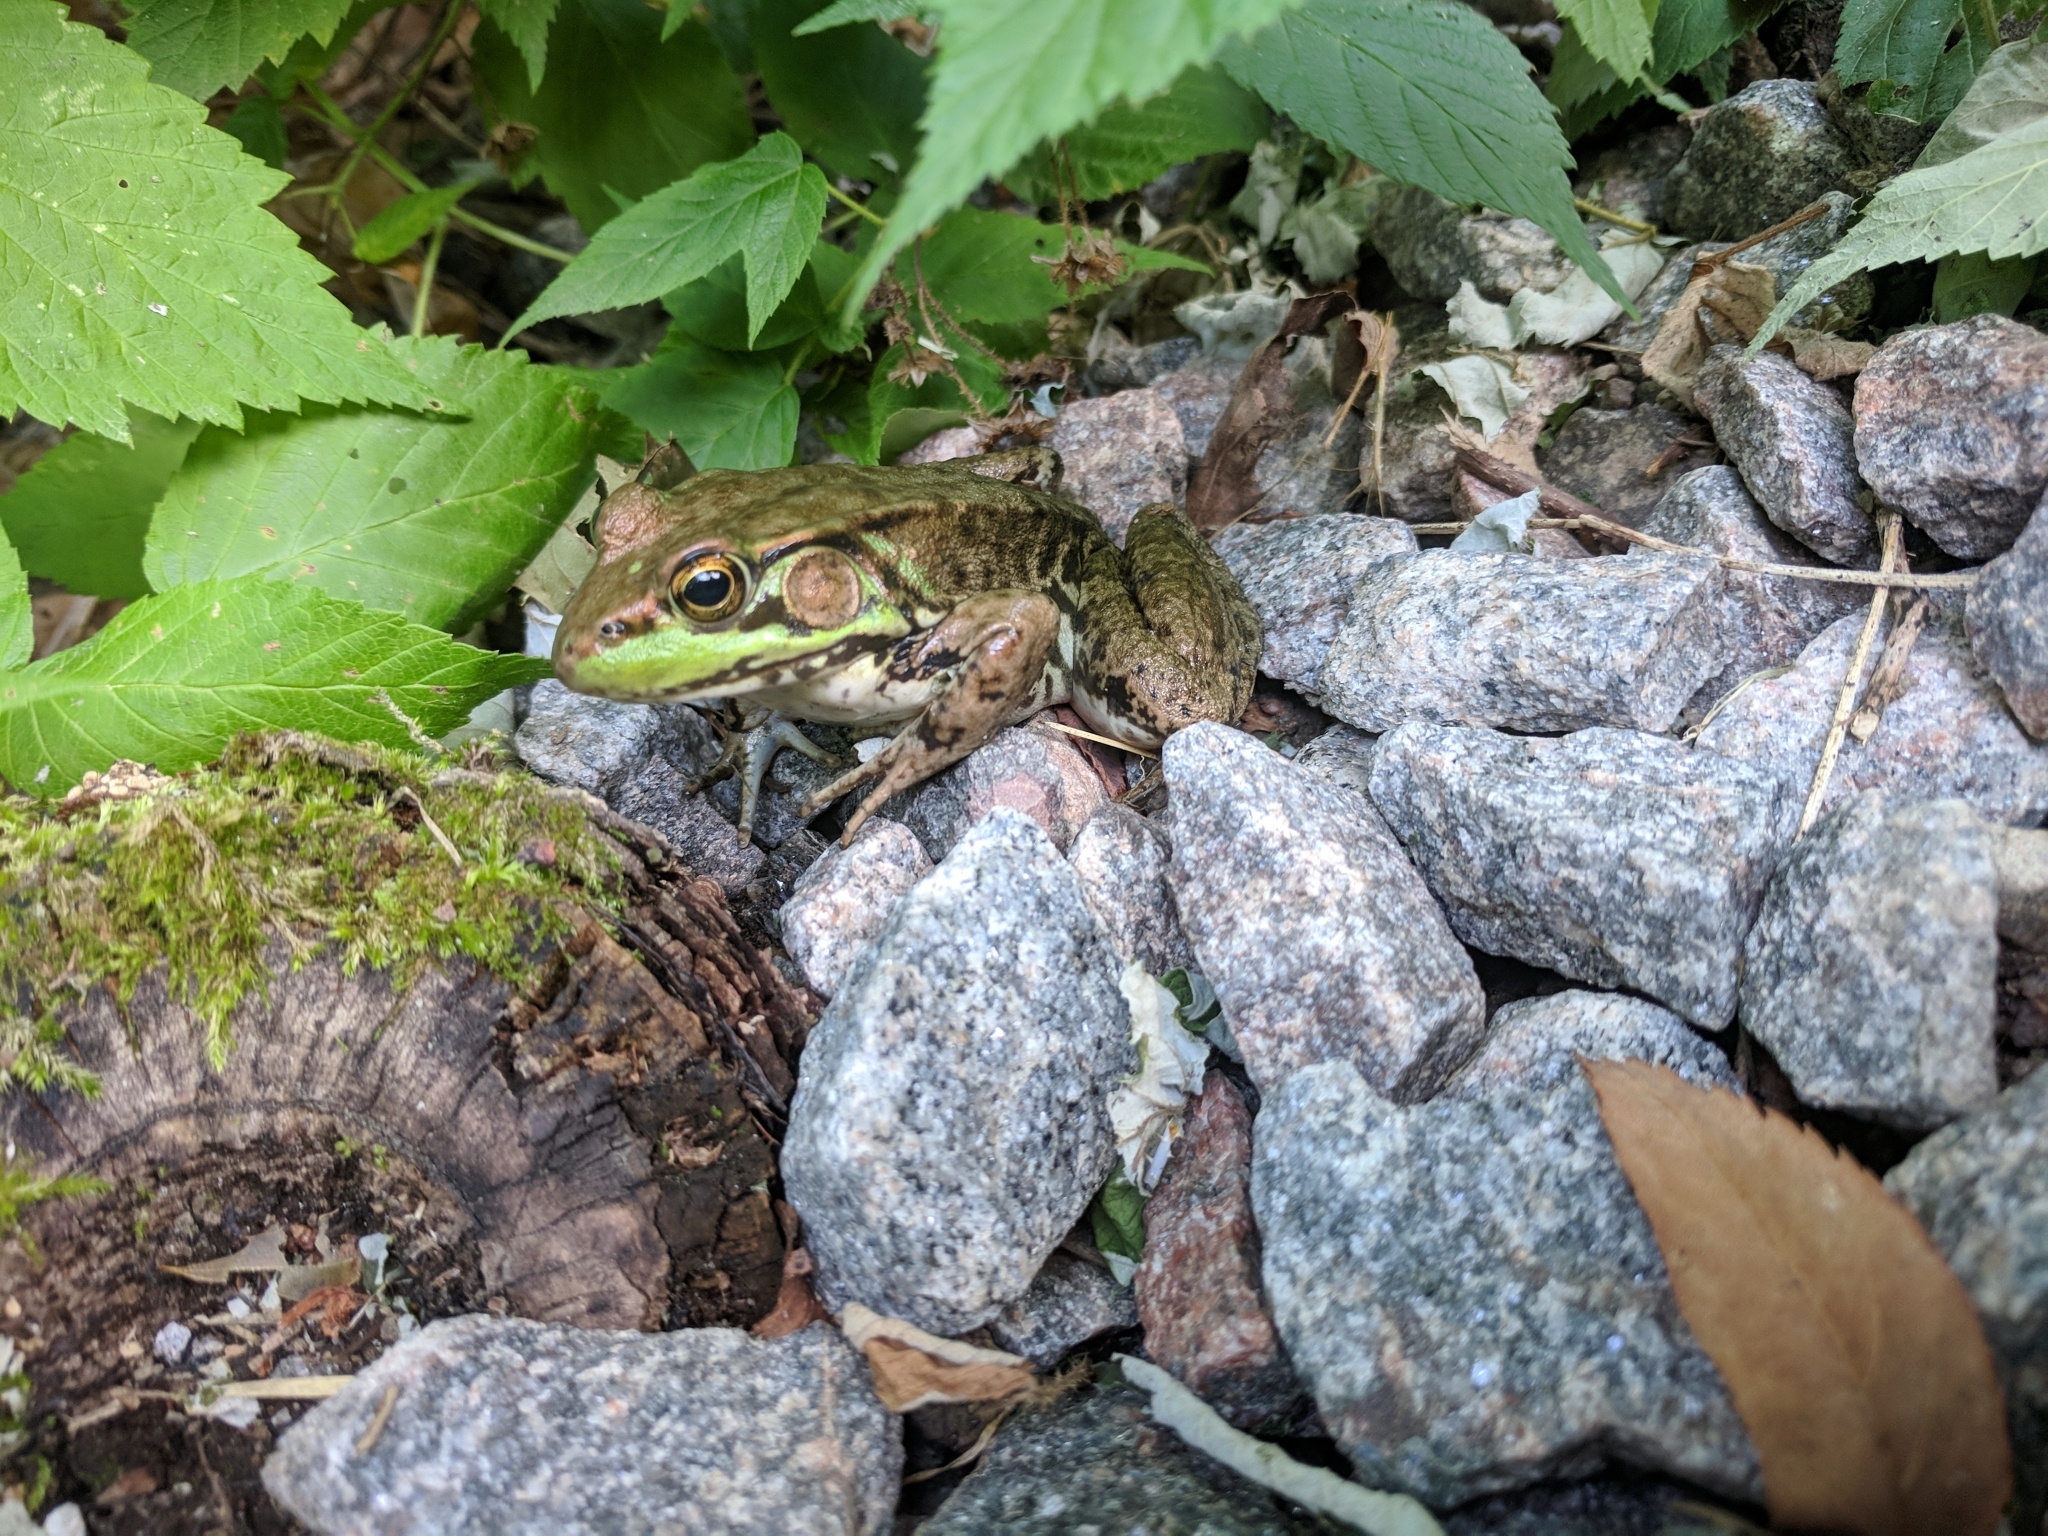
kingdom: Animalia
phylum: Chordata
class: Amphibia
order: Anura
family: Ranidae
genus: Lithobates
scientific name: Lithobates clamitans
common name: Green frog
